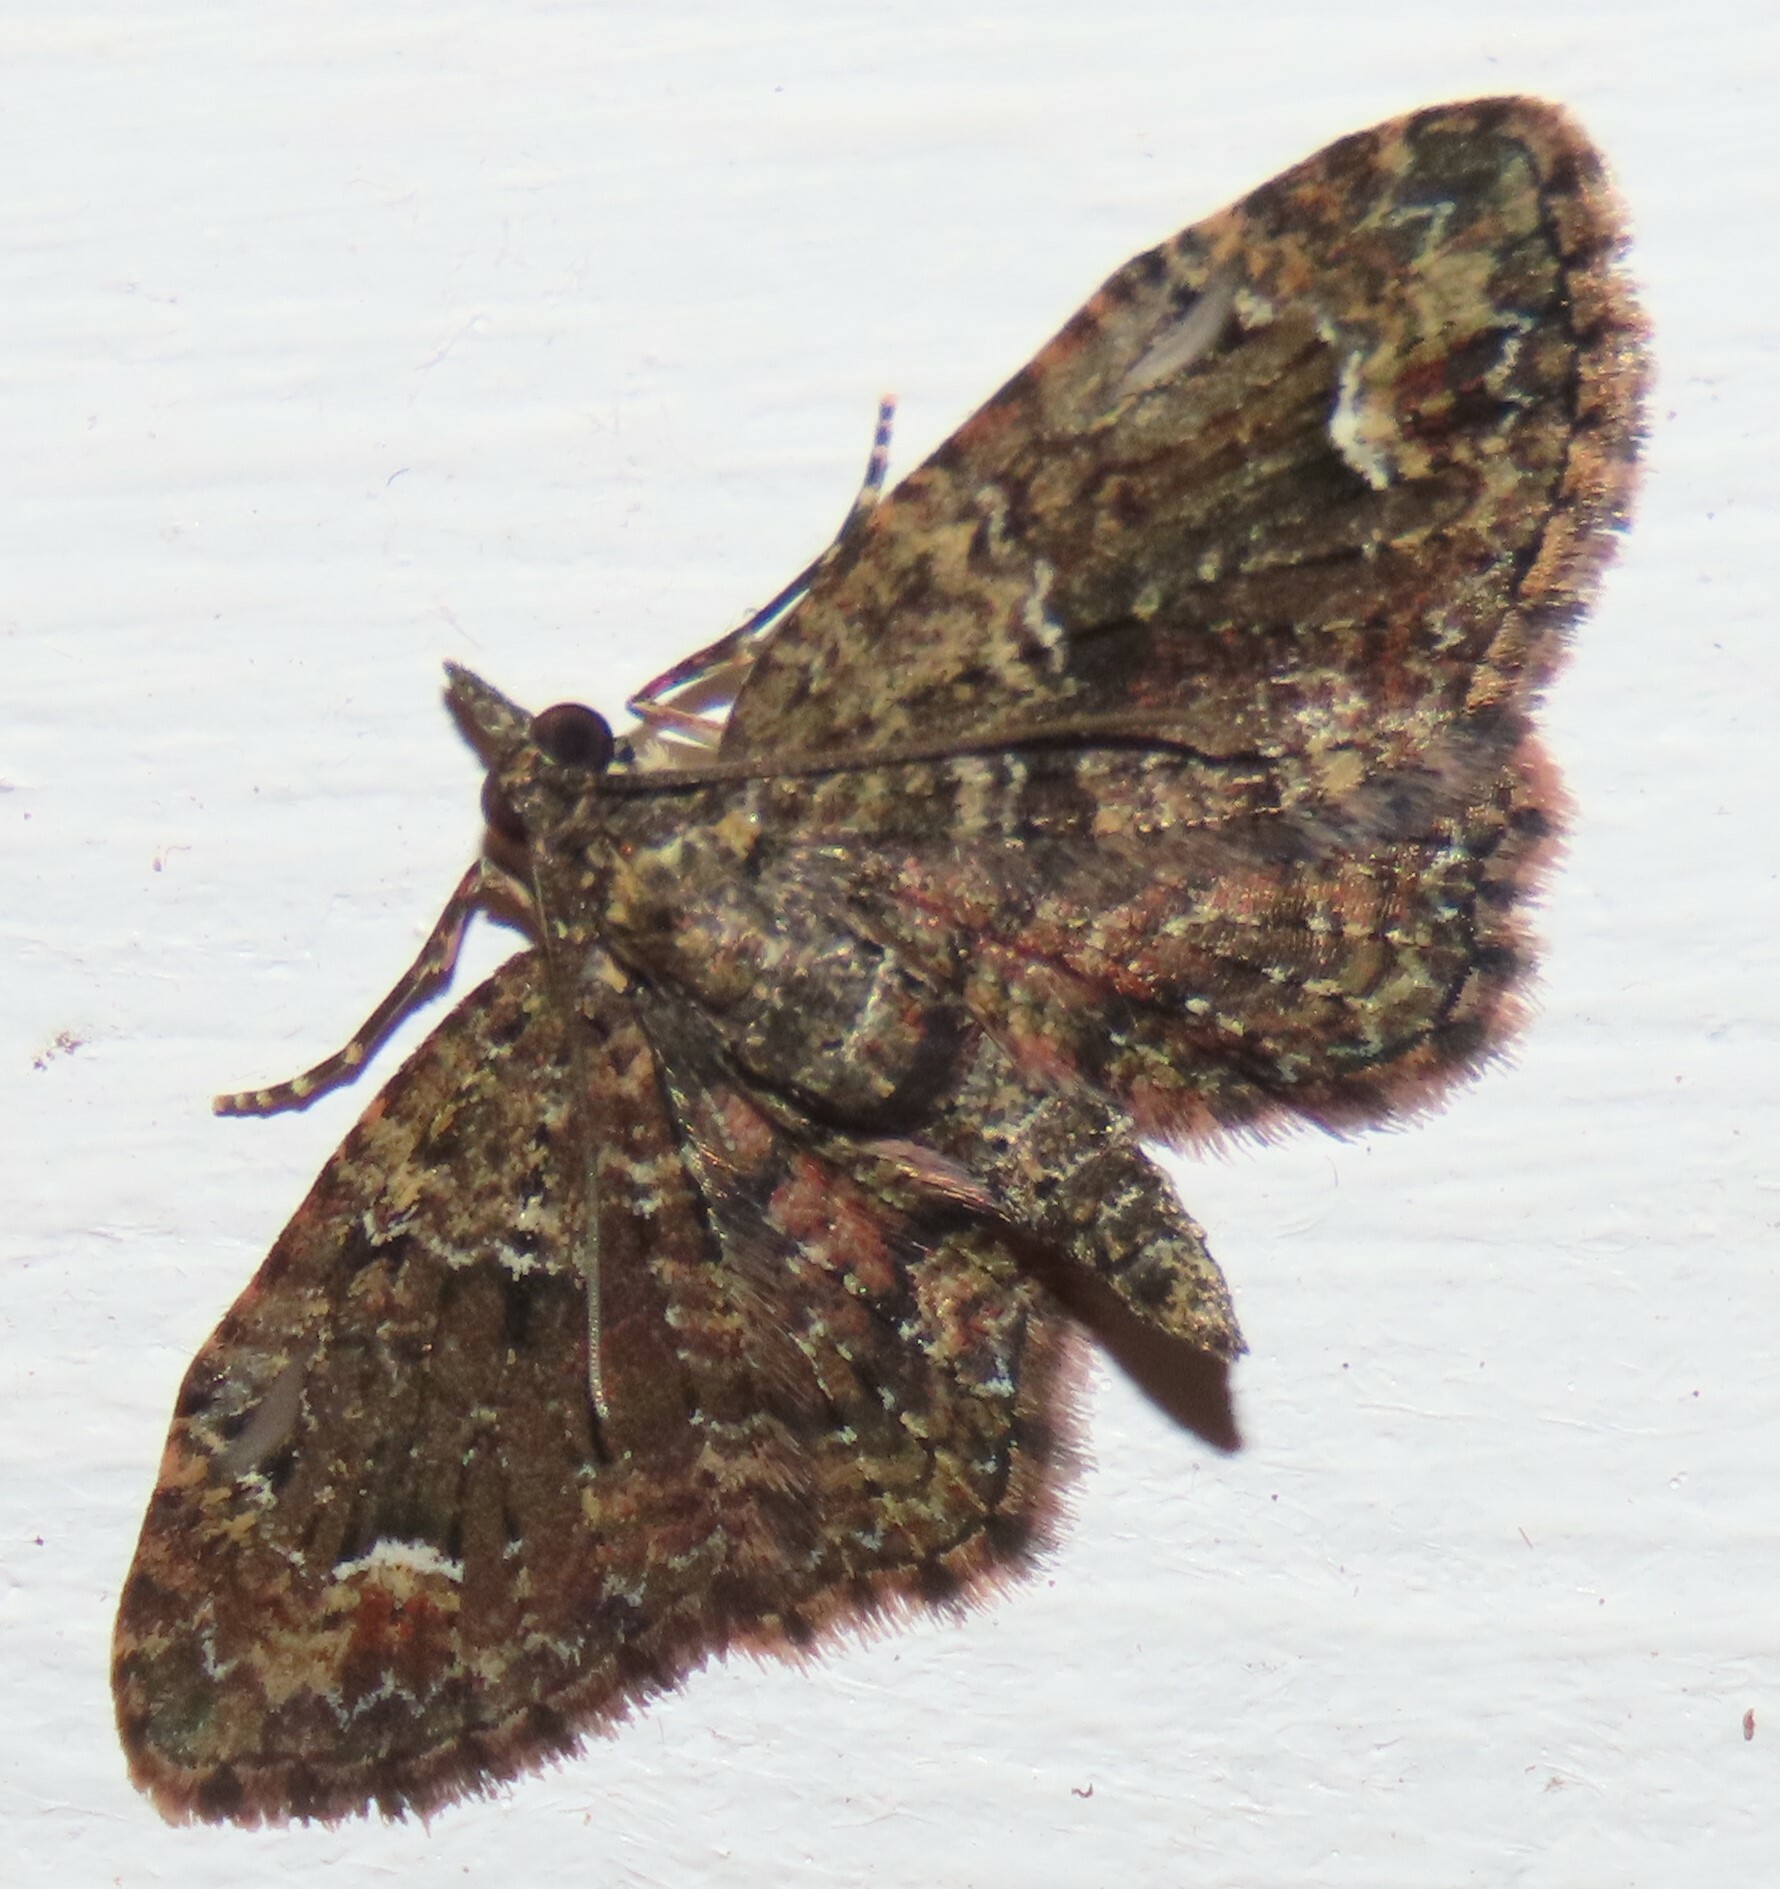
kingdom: Animalia
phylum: Arthropoda
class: Insecta
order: Lepidoptera
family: Geometridae
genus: Pasiphilodes
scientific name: Pasiphilodes testulata
